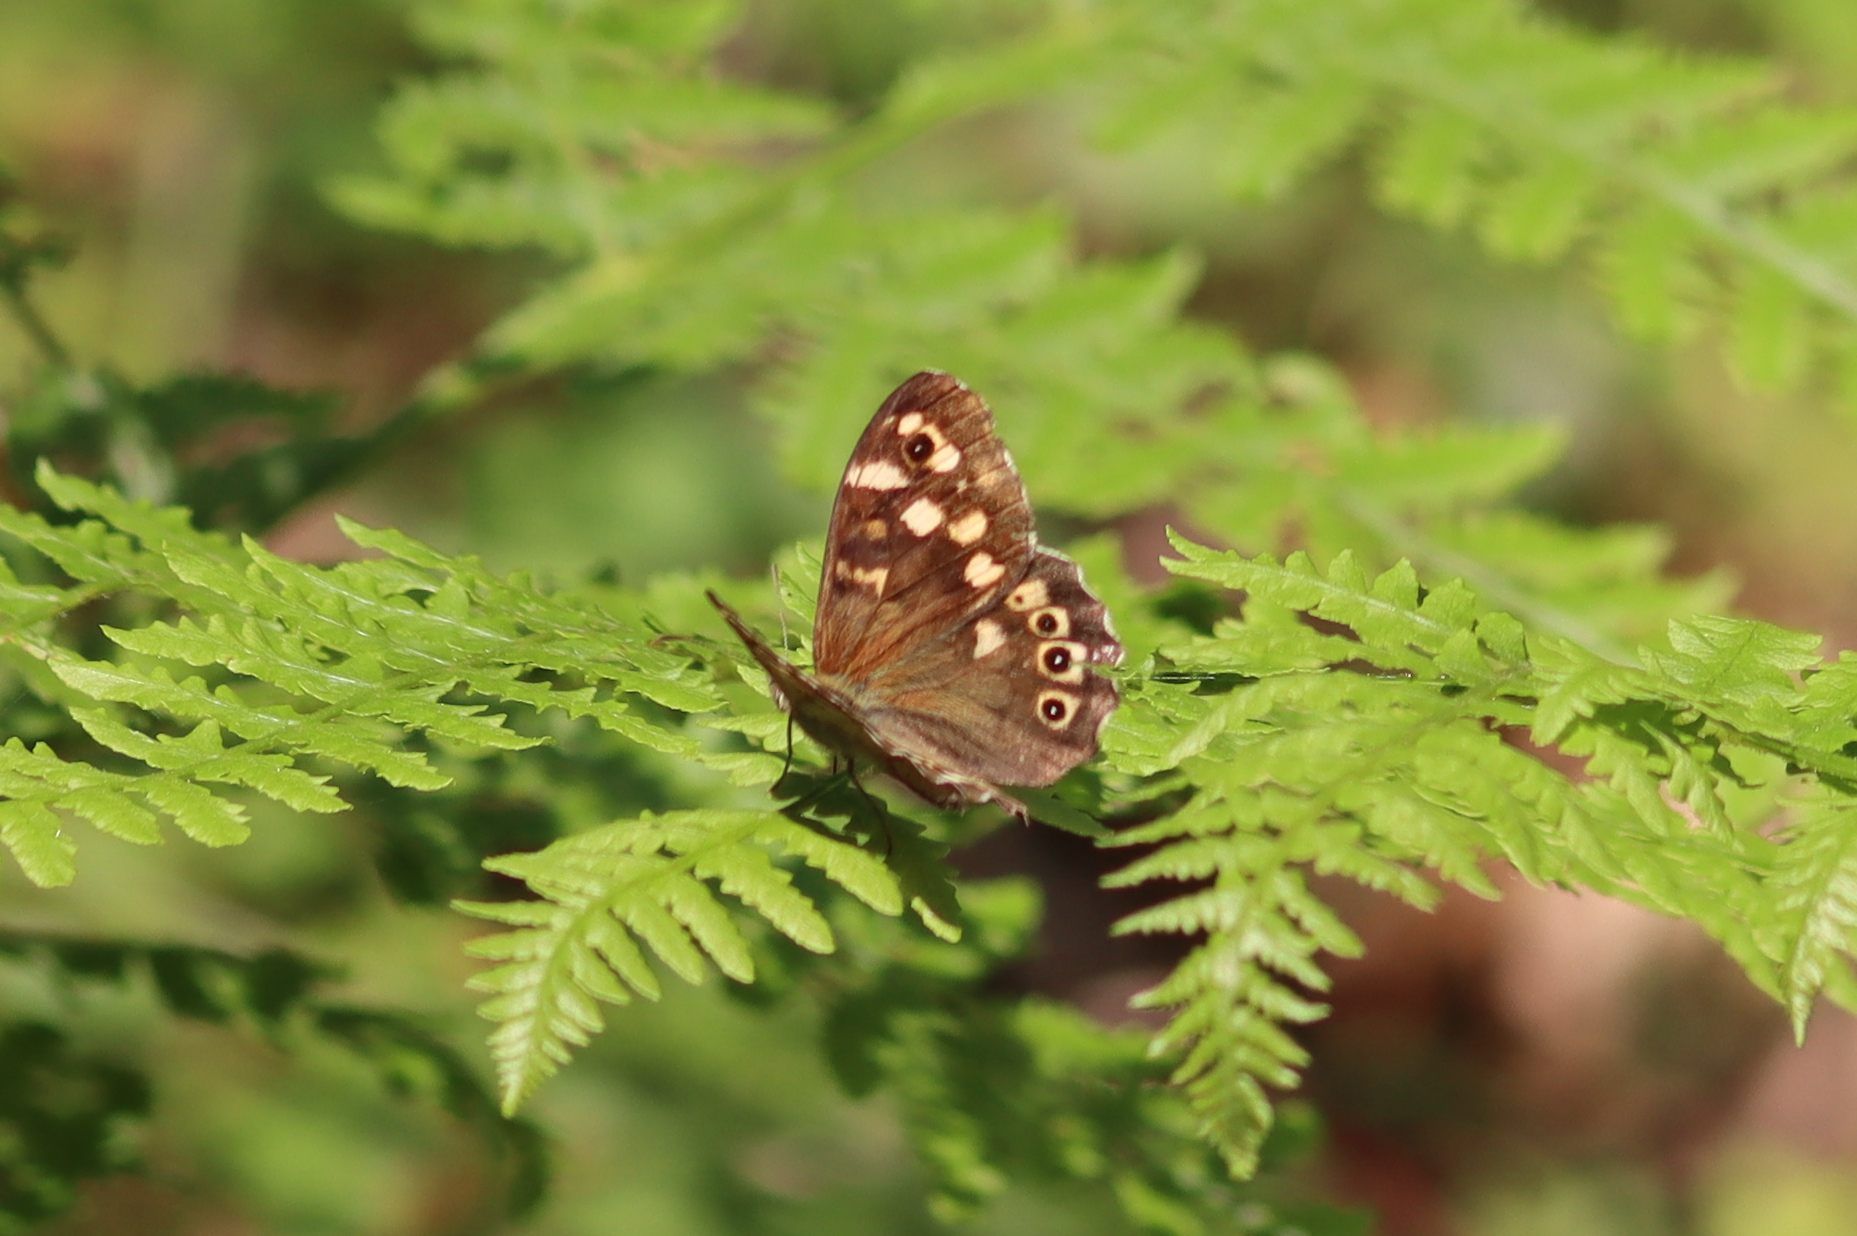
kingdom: Animalia
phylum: Arthropoda
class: Insecta
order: Lepidoptera
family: Nymphalidae
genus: Pararge
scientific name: Pararge aegeria
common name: Speckled wood
